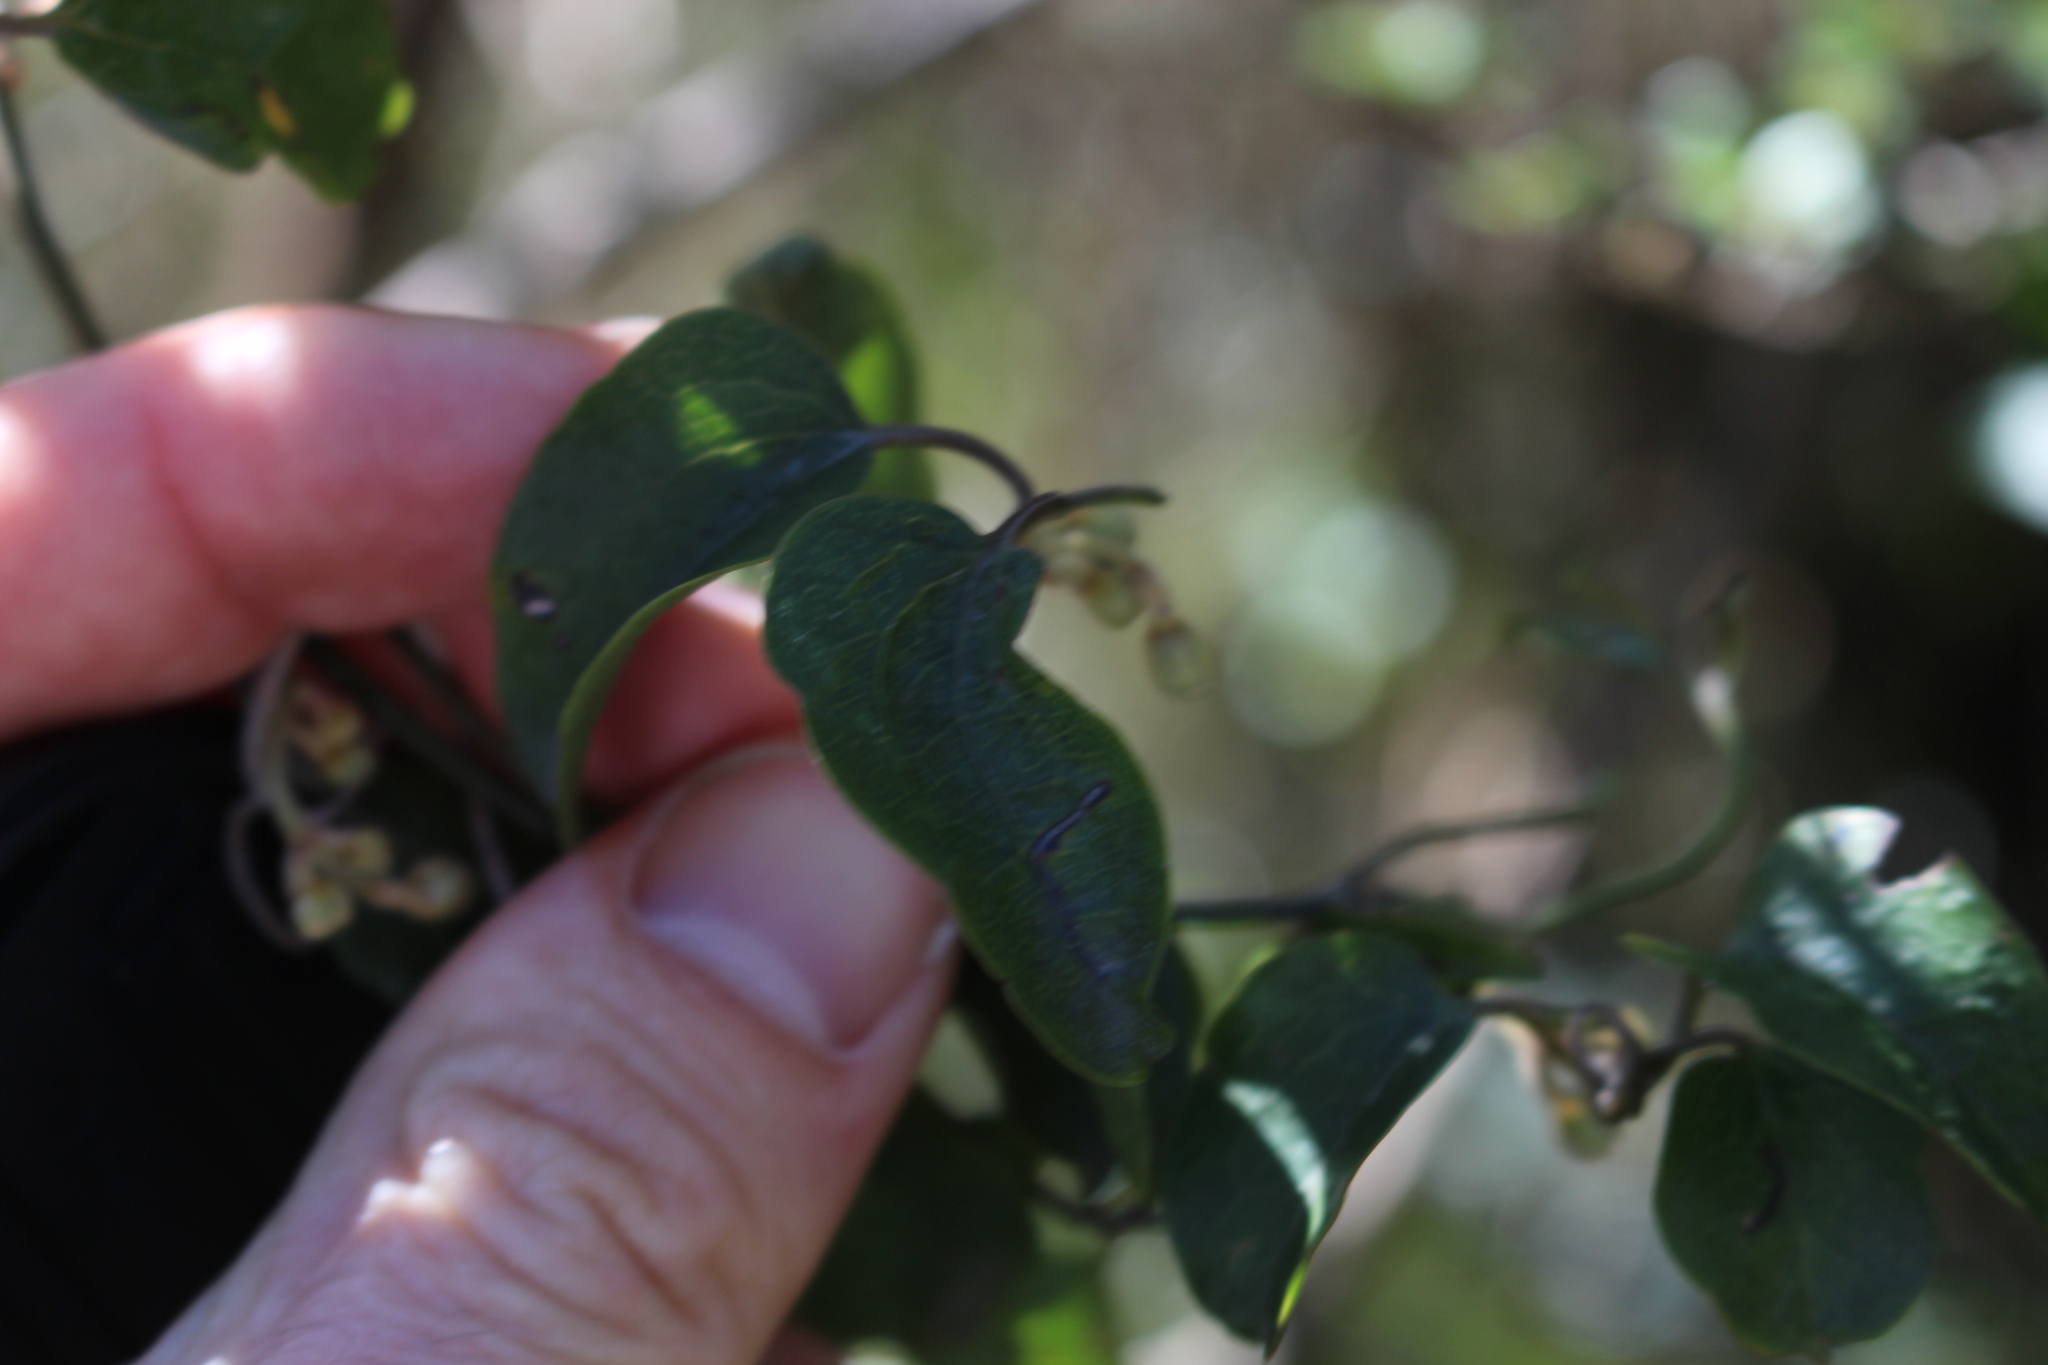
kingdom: Plantae
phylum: Tracheophyta
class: Magnoliopsida
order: Ranunculales
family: Ranunculaceae
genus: Clematis
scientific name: Clematis foetida
